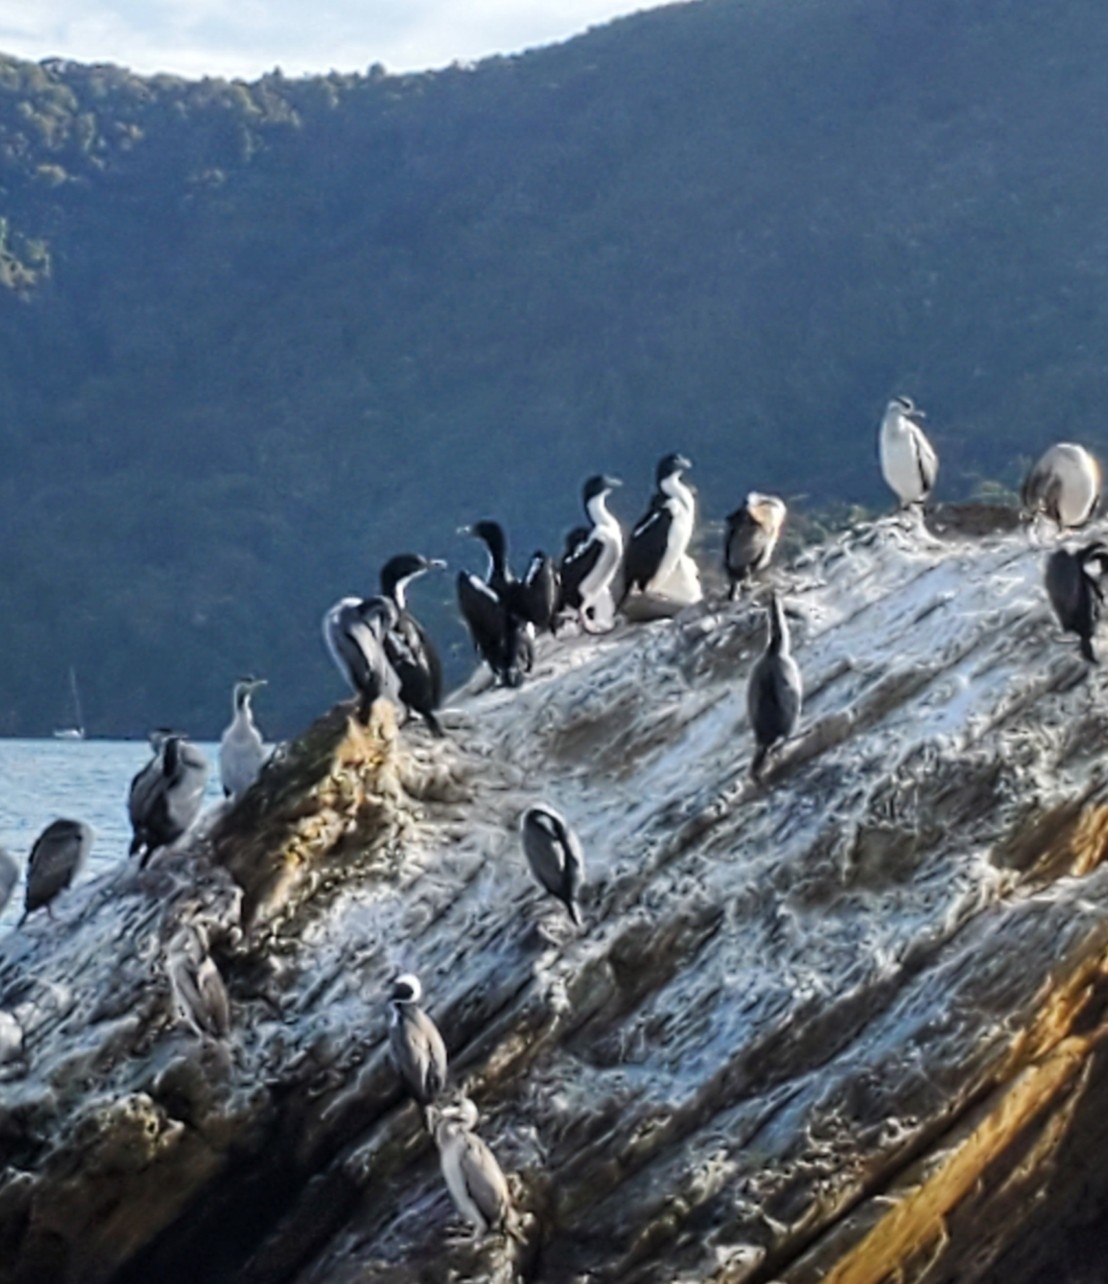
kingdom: Animalia
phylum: Chordata
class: Aves
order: Suliformes
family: Phalacrocoracidae
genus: Leucocarbo
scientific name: Leucocarbo carunculatus
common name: Rough-faced shag
